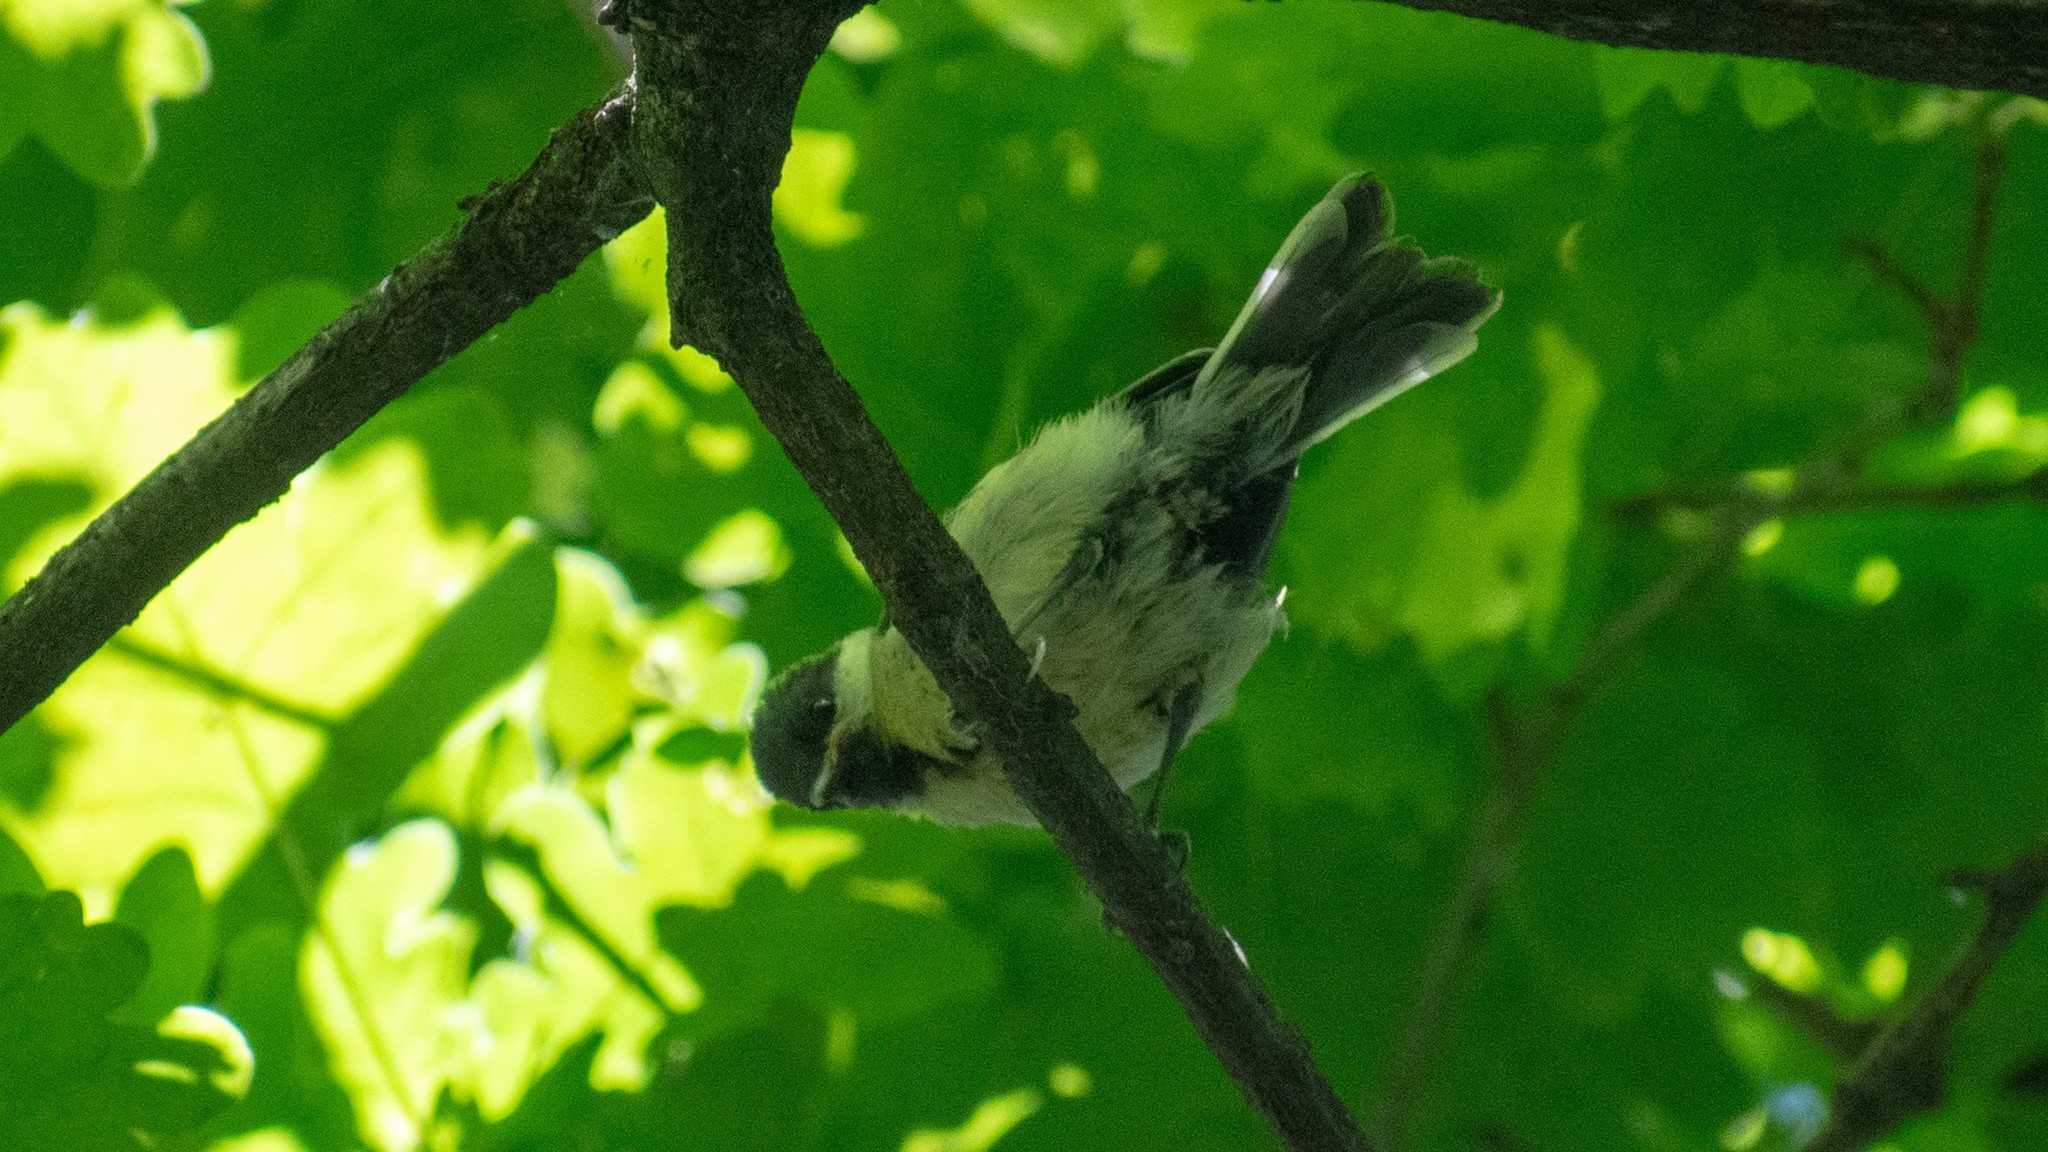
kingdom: Animalia
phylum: Chordata
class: Aves
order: Passeriformes
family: Paridae
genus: Parus
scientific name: Parus major
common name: Great tit
